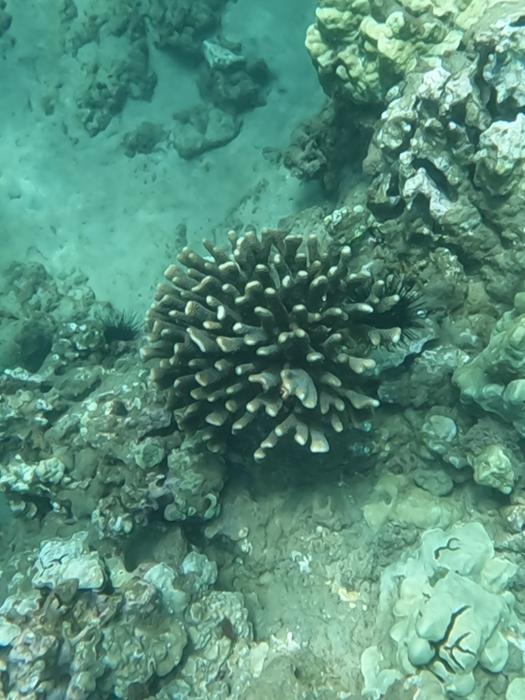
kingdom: Animalia
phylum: Cnidaria
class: Anthozoa
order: Scleractinia
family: Pocilloporidae
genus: Pocillopora
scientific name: Pocillopora grandis
